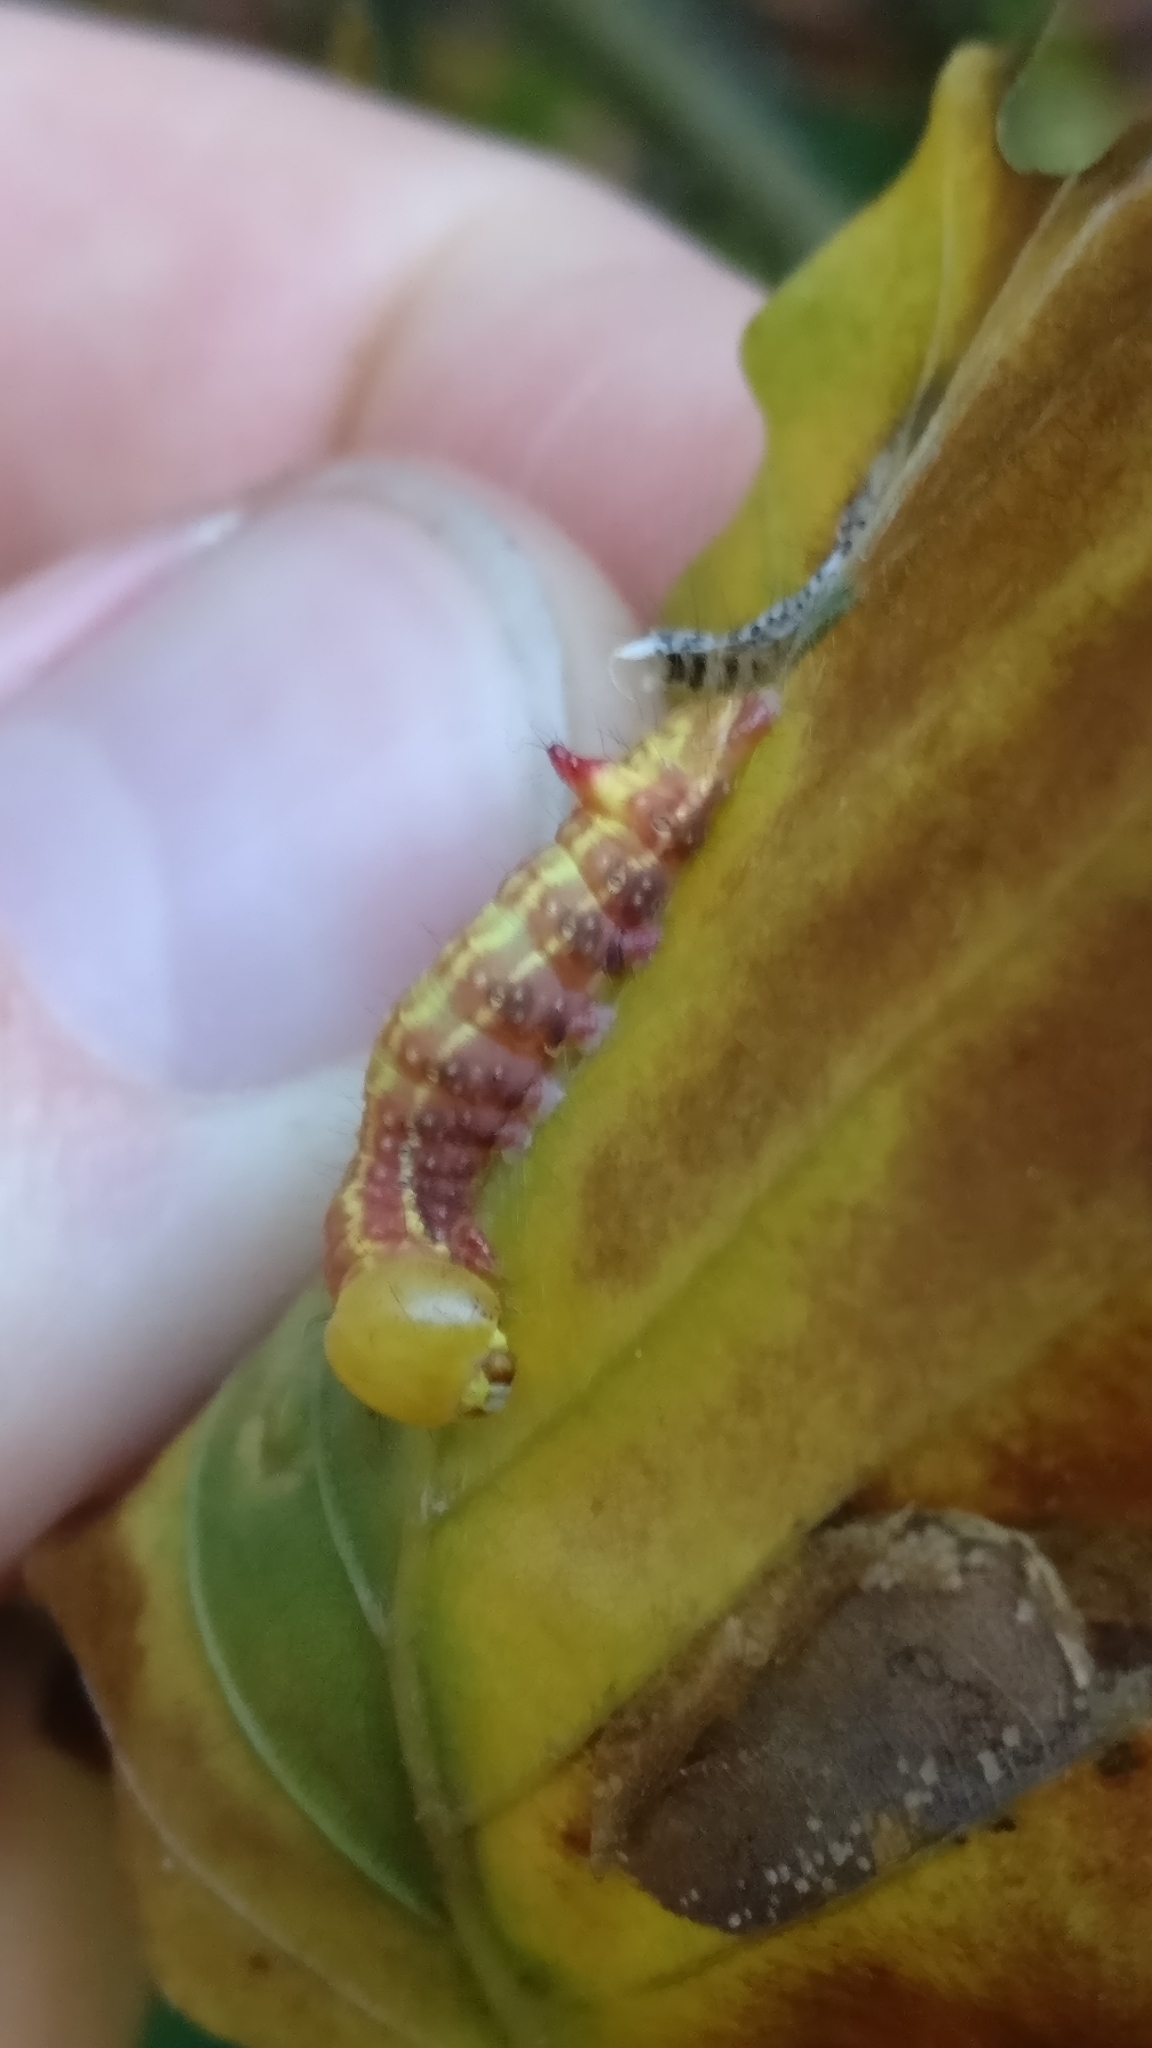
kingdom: Animalia
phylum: Arthropoda
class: Insecta
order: Lepidoptera
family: Notodontidae
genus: Ptilodon
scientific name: Ptilodon capucina
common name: Coxcomb prominent
